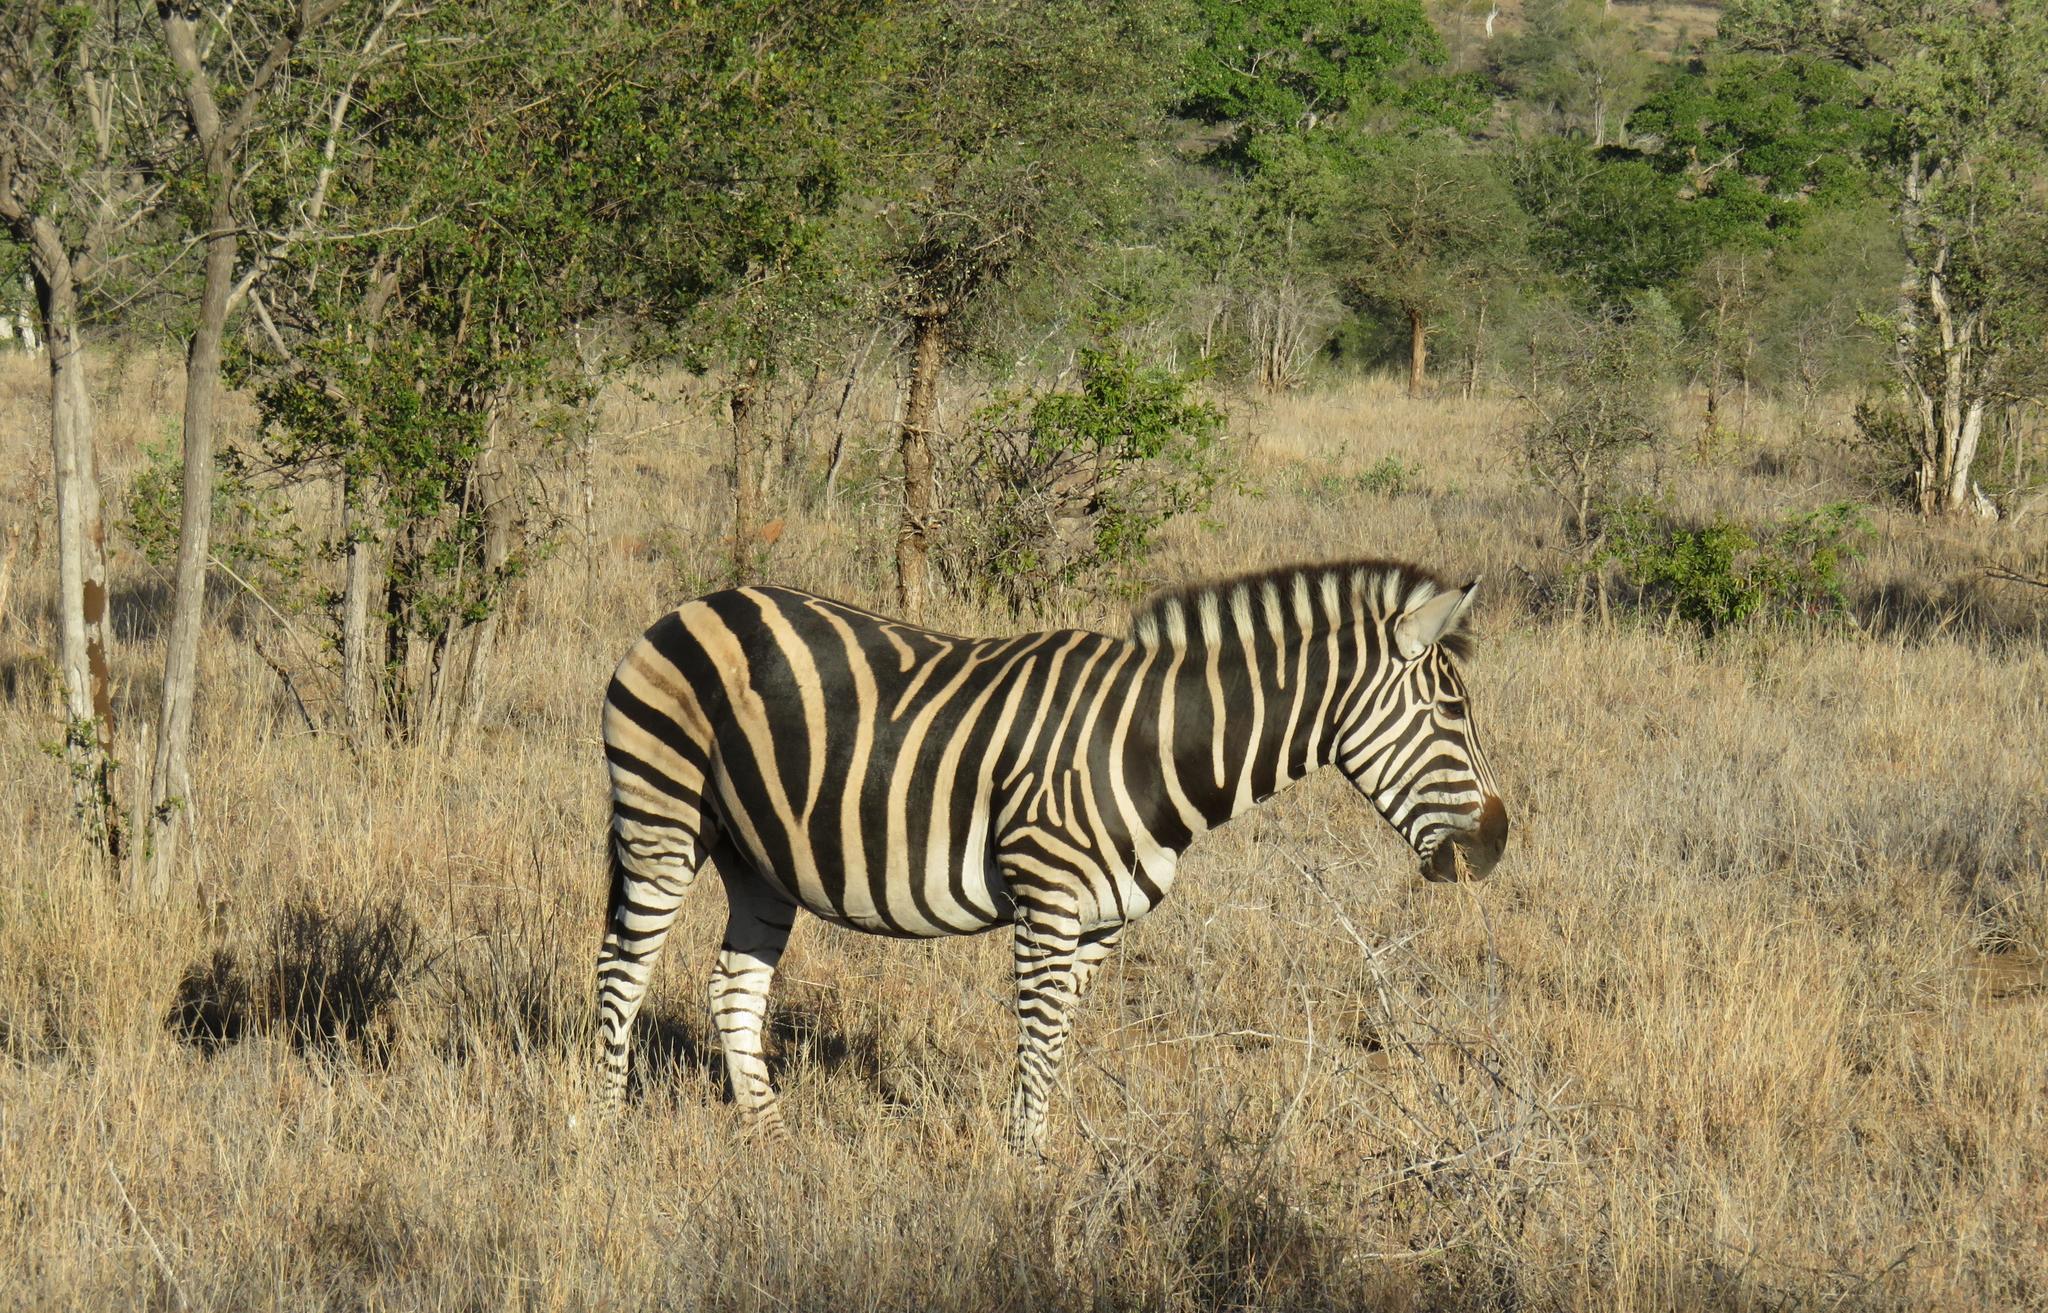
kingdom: Animalia
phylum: Chordata
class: Mammalia
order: Perissodactyla
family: Equidae
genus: Equus
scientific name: Equus quagga
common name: Plains zebra
